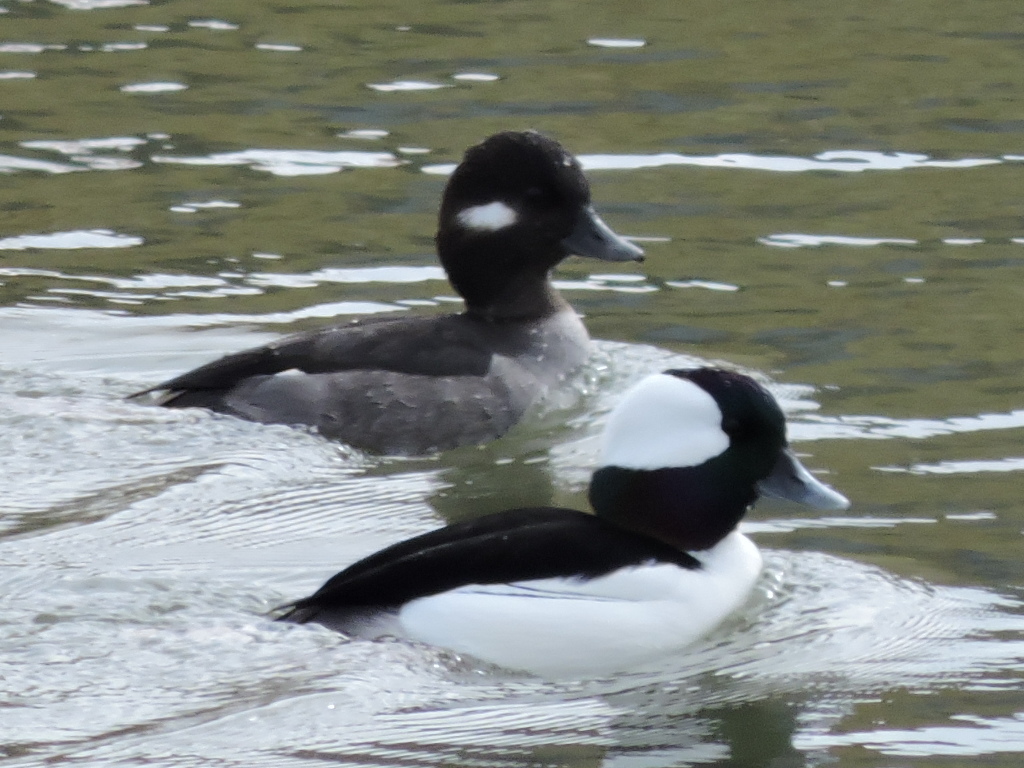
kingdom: Animalia
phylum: Chordata
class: Aves
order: Anseriformes
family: Anatidae
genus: Bucephala
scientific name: Bucephala albeola
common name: Bufflehead
